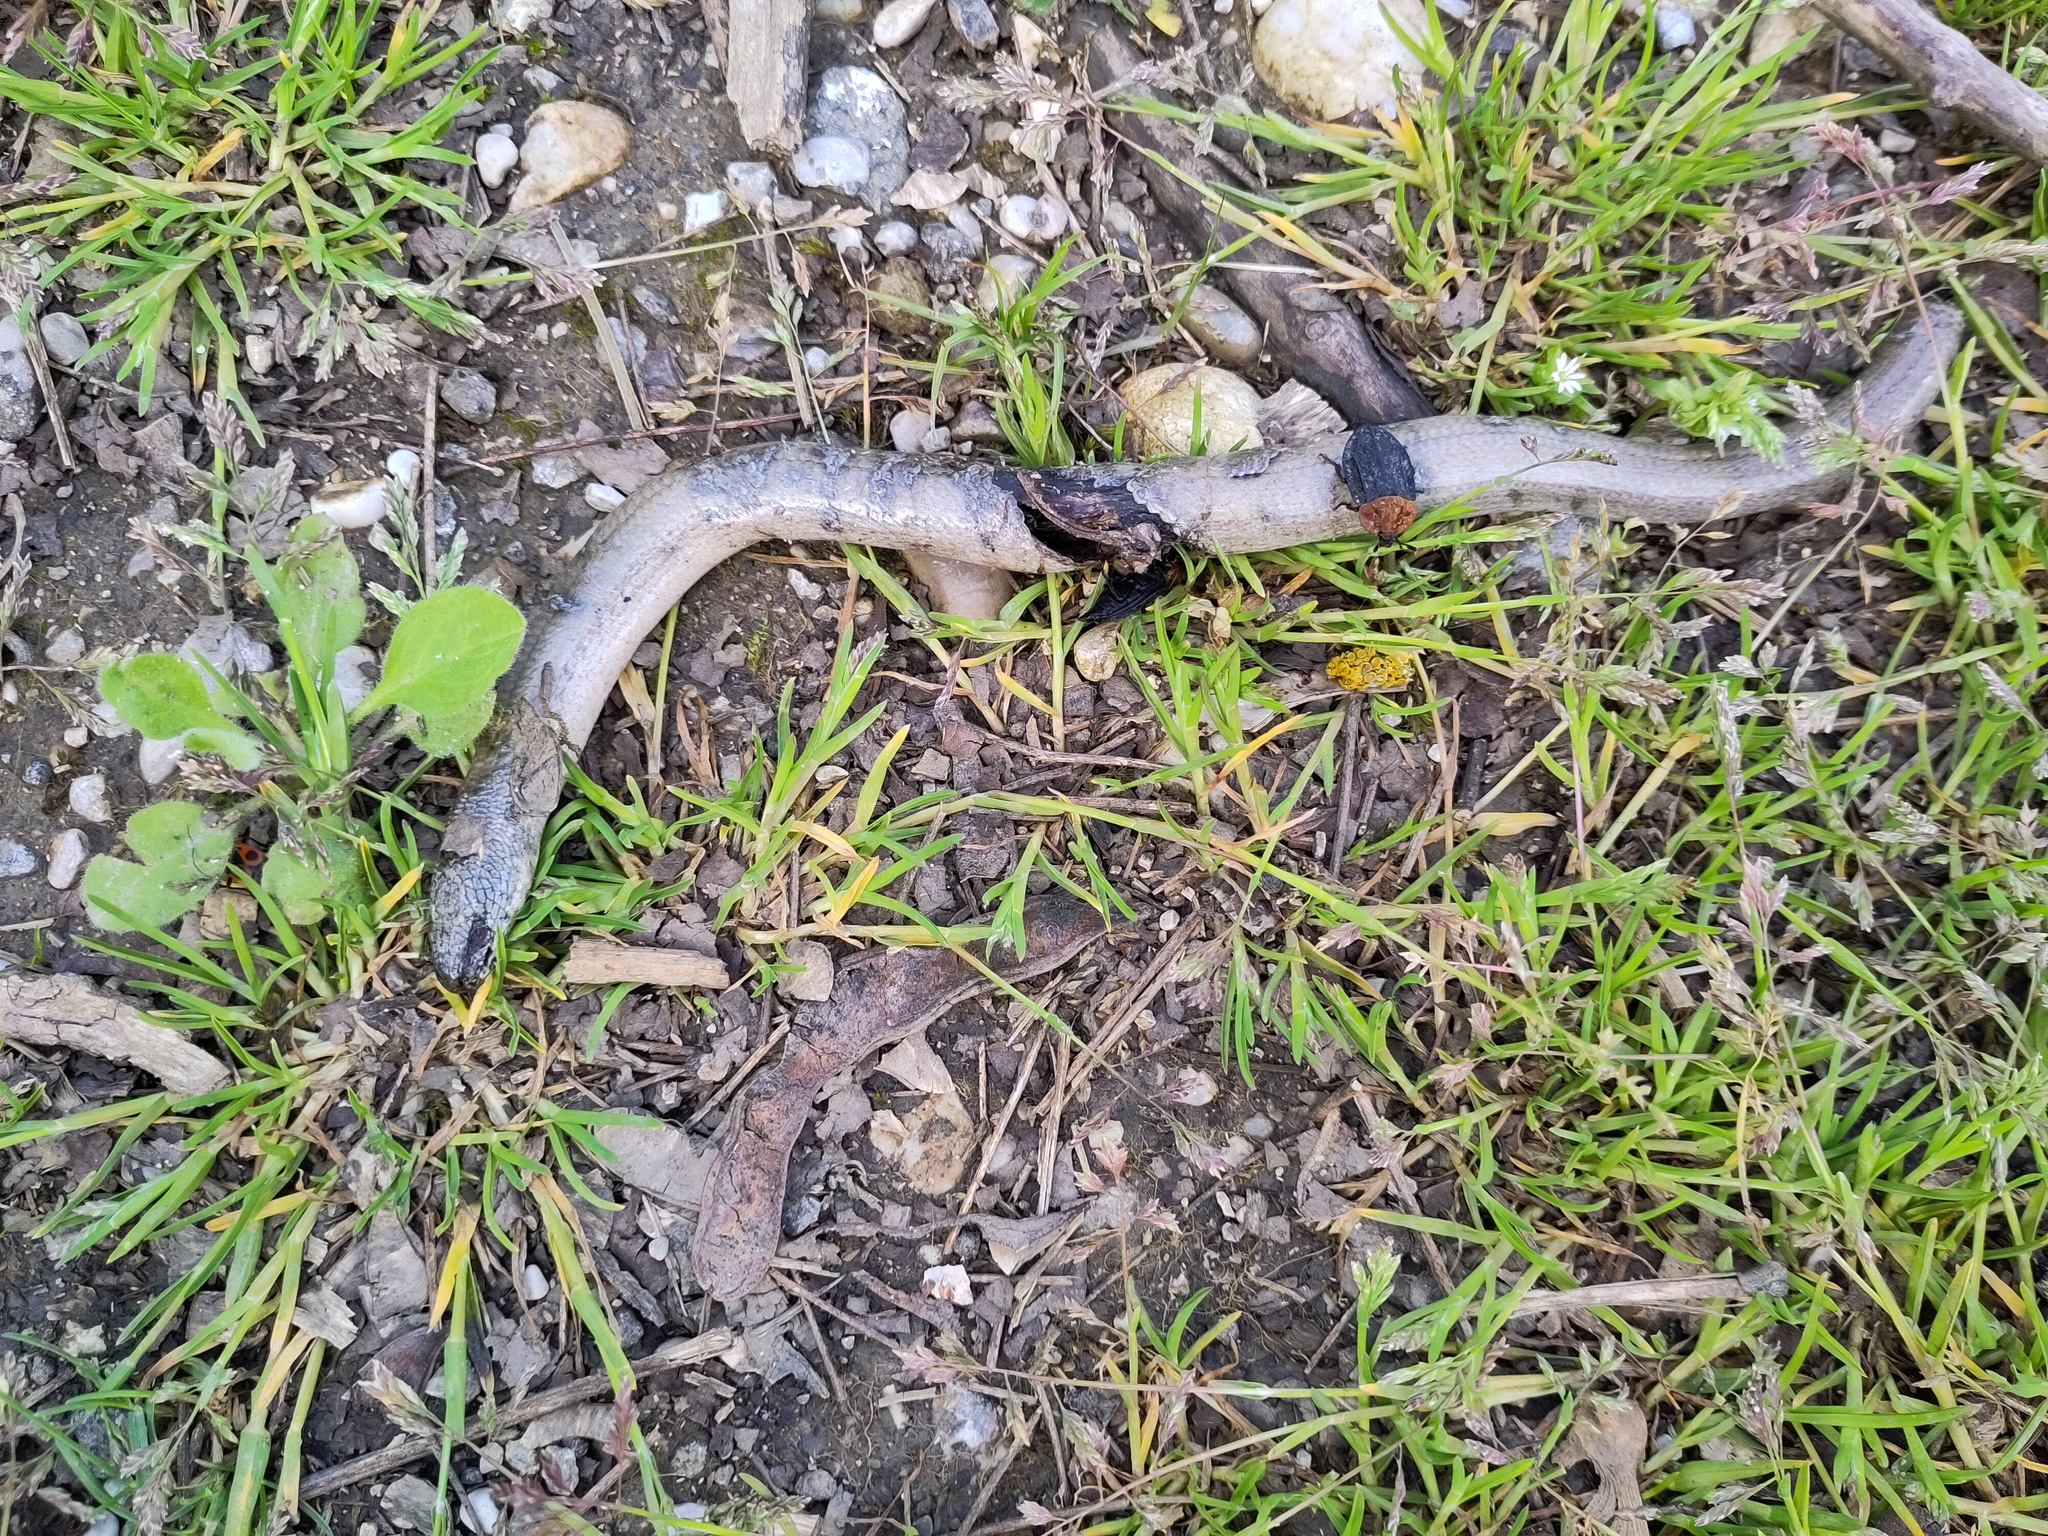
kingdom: Animalia
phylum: Chordata
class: Squamata
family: Anguidae
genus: Anguis
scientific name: Anguis fragilis
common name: Slow worm
